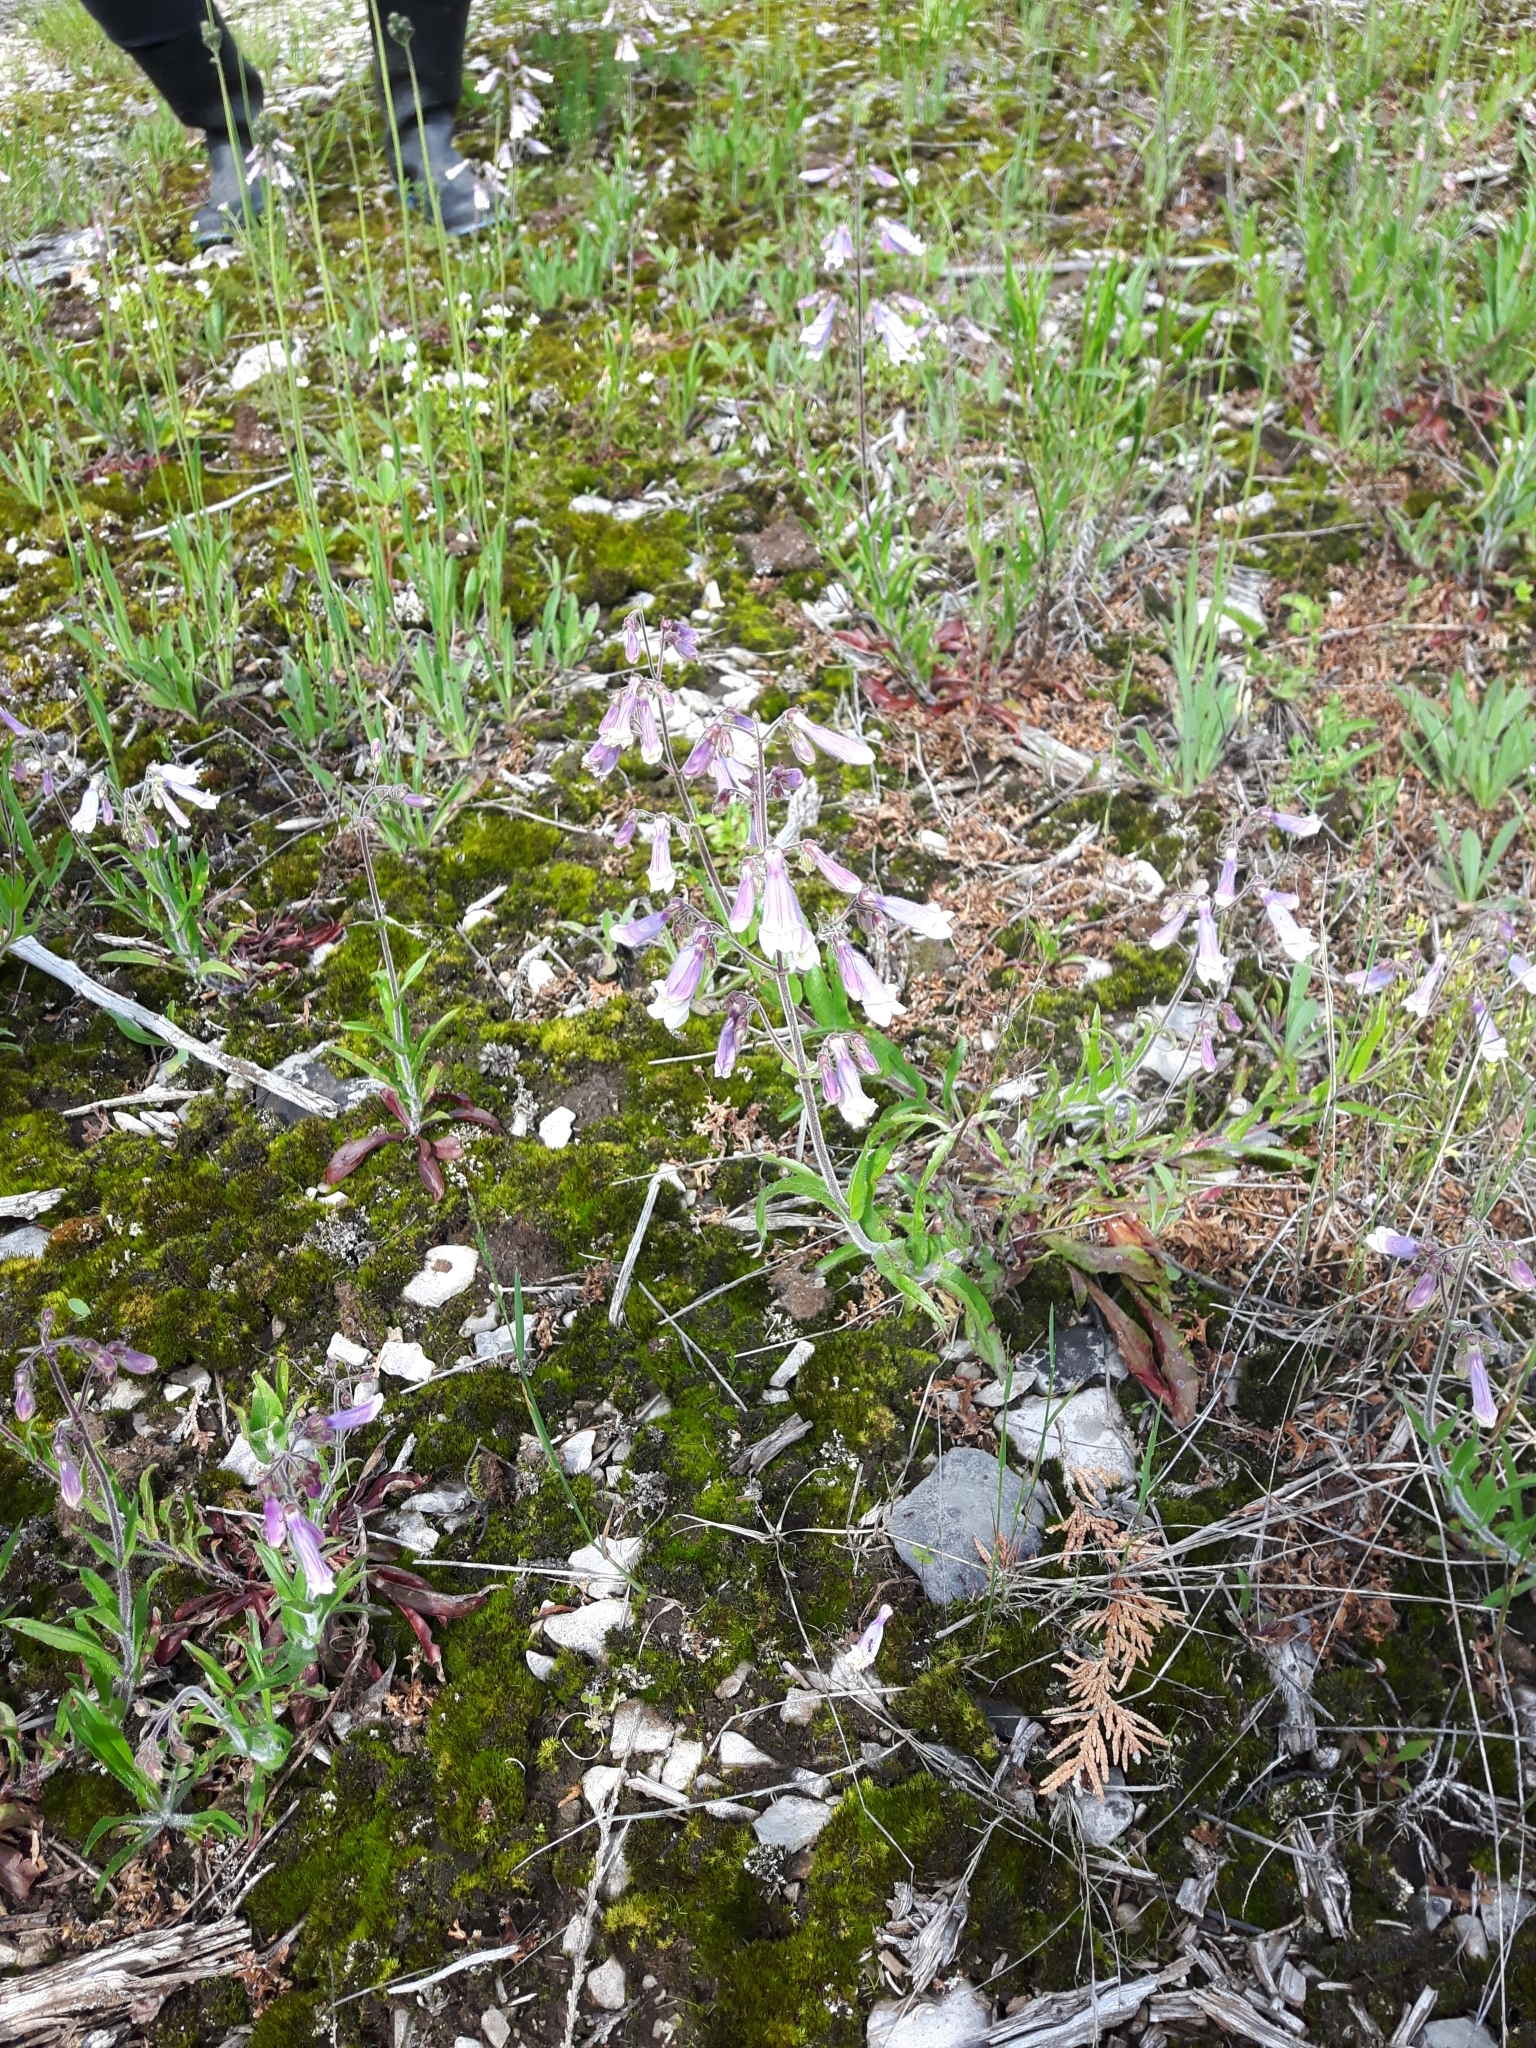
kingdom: Plantae
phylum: Tracheophyta
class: Magnoliopsida
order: Lamiales
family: Plantaginaceae
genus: Penstemon
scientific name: Penstemon hirsutus
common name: Hairy beardtongue
